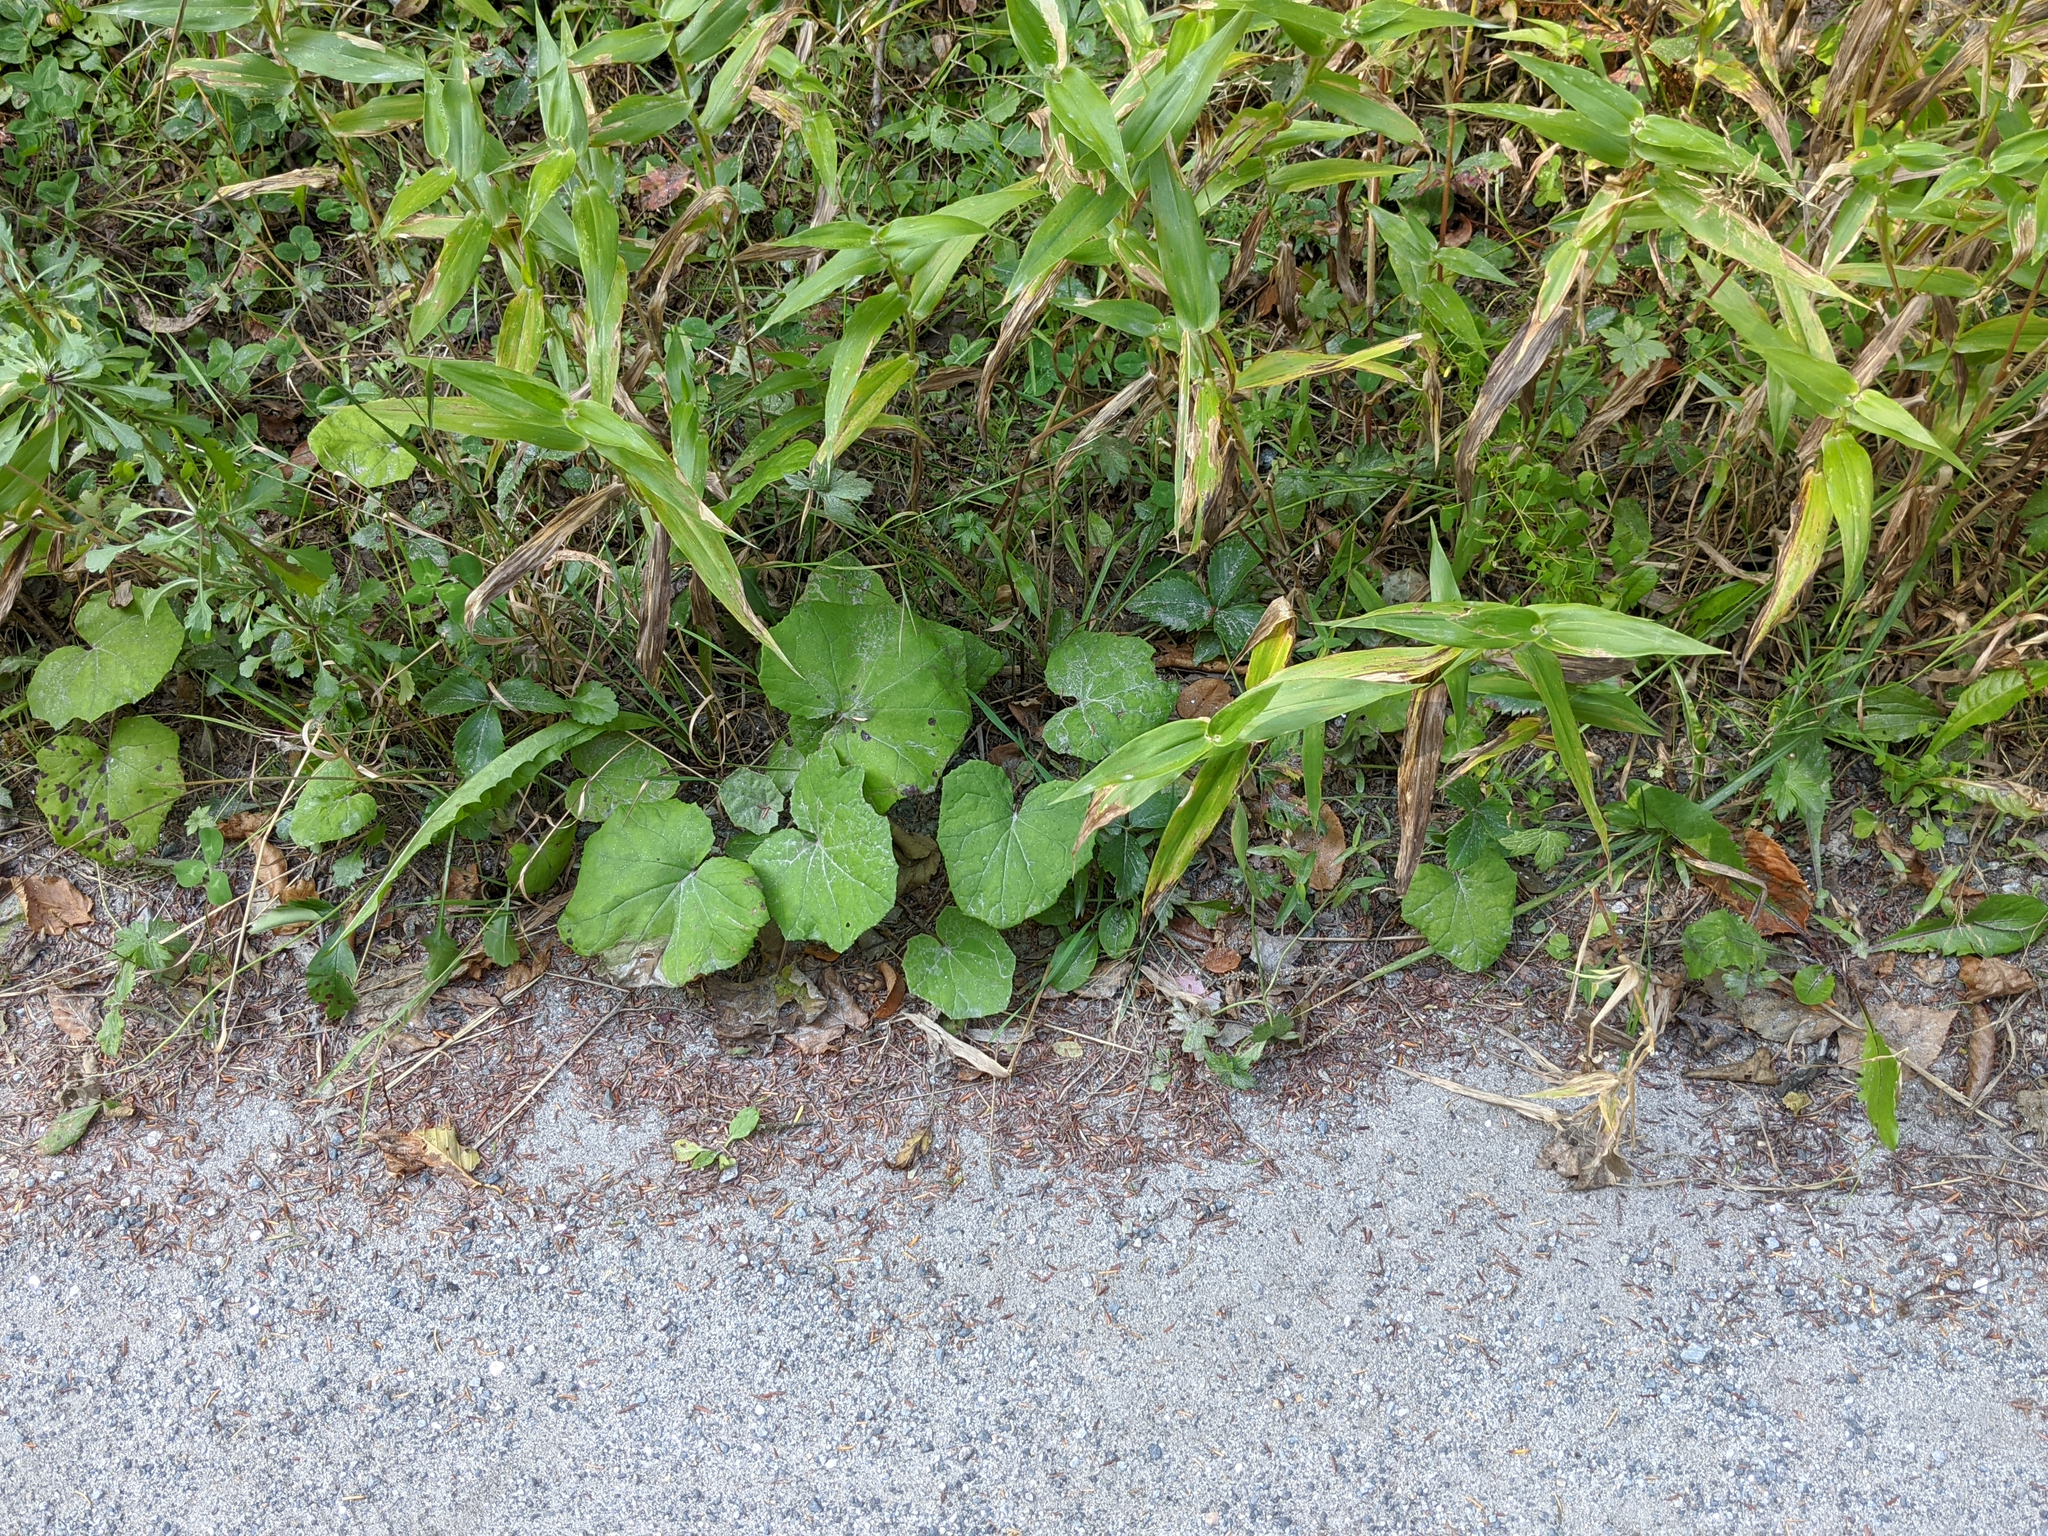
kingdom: Plantae
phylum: Tracheophyta
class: Magnoliopsida
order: Asterales
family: Asteraceae
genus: Tussilago
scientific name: Tussilago farfara
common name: Coltsfoot
